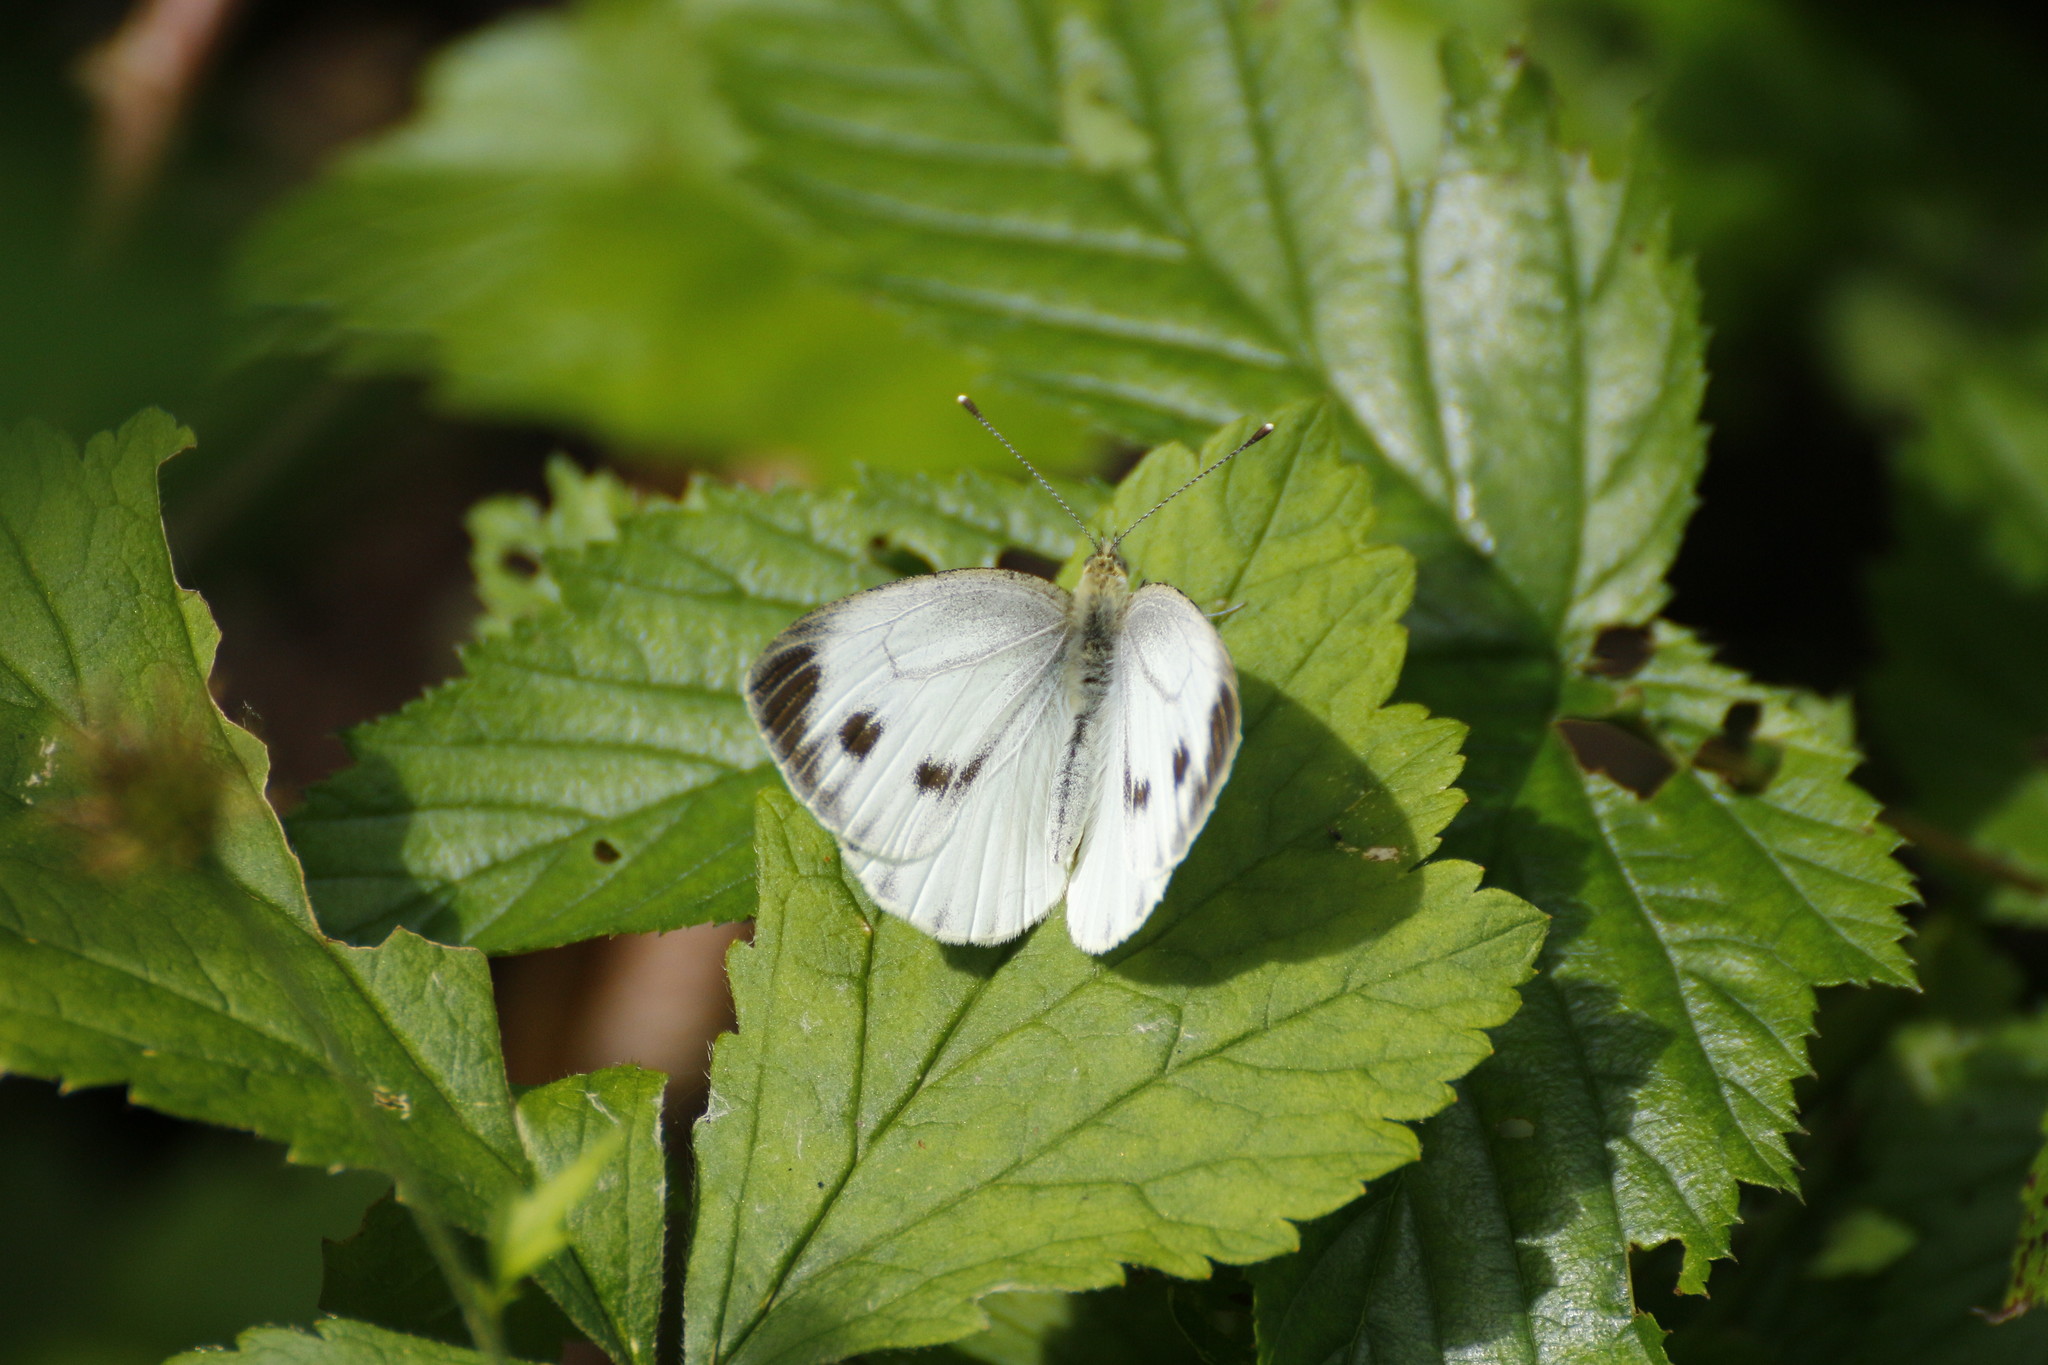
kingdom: Animalia
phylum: Arthropoda
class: Insecta
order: Lepidoptera
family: Pieridae
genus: Pieris
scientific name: Pieris napi
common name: Green-veined white
